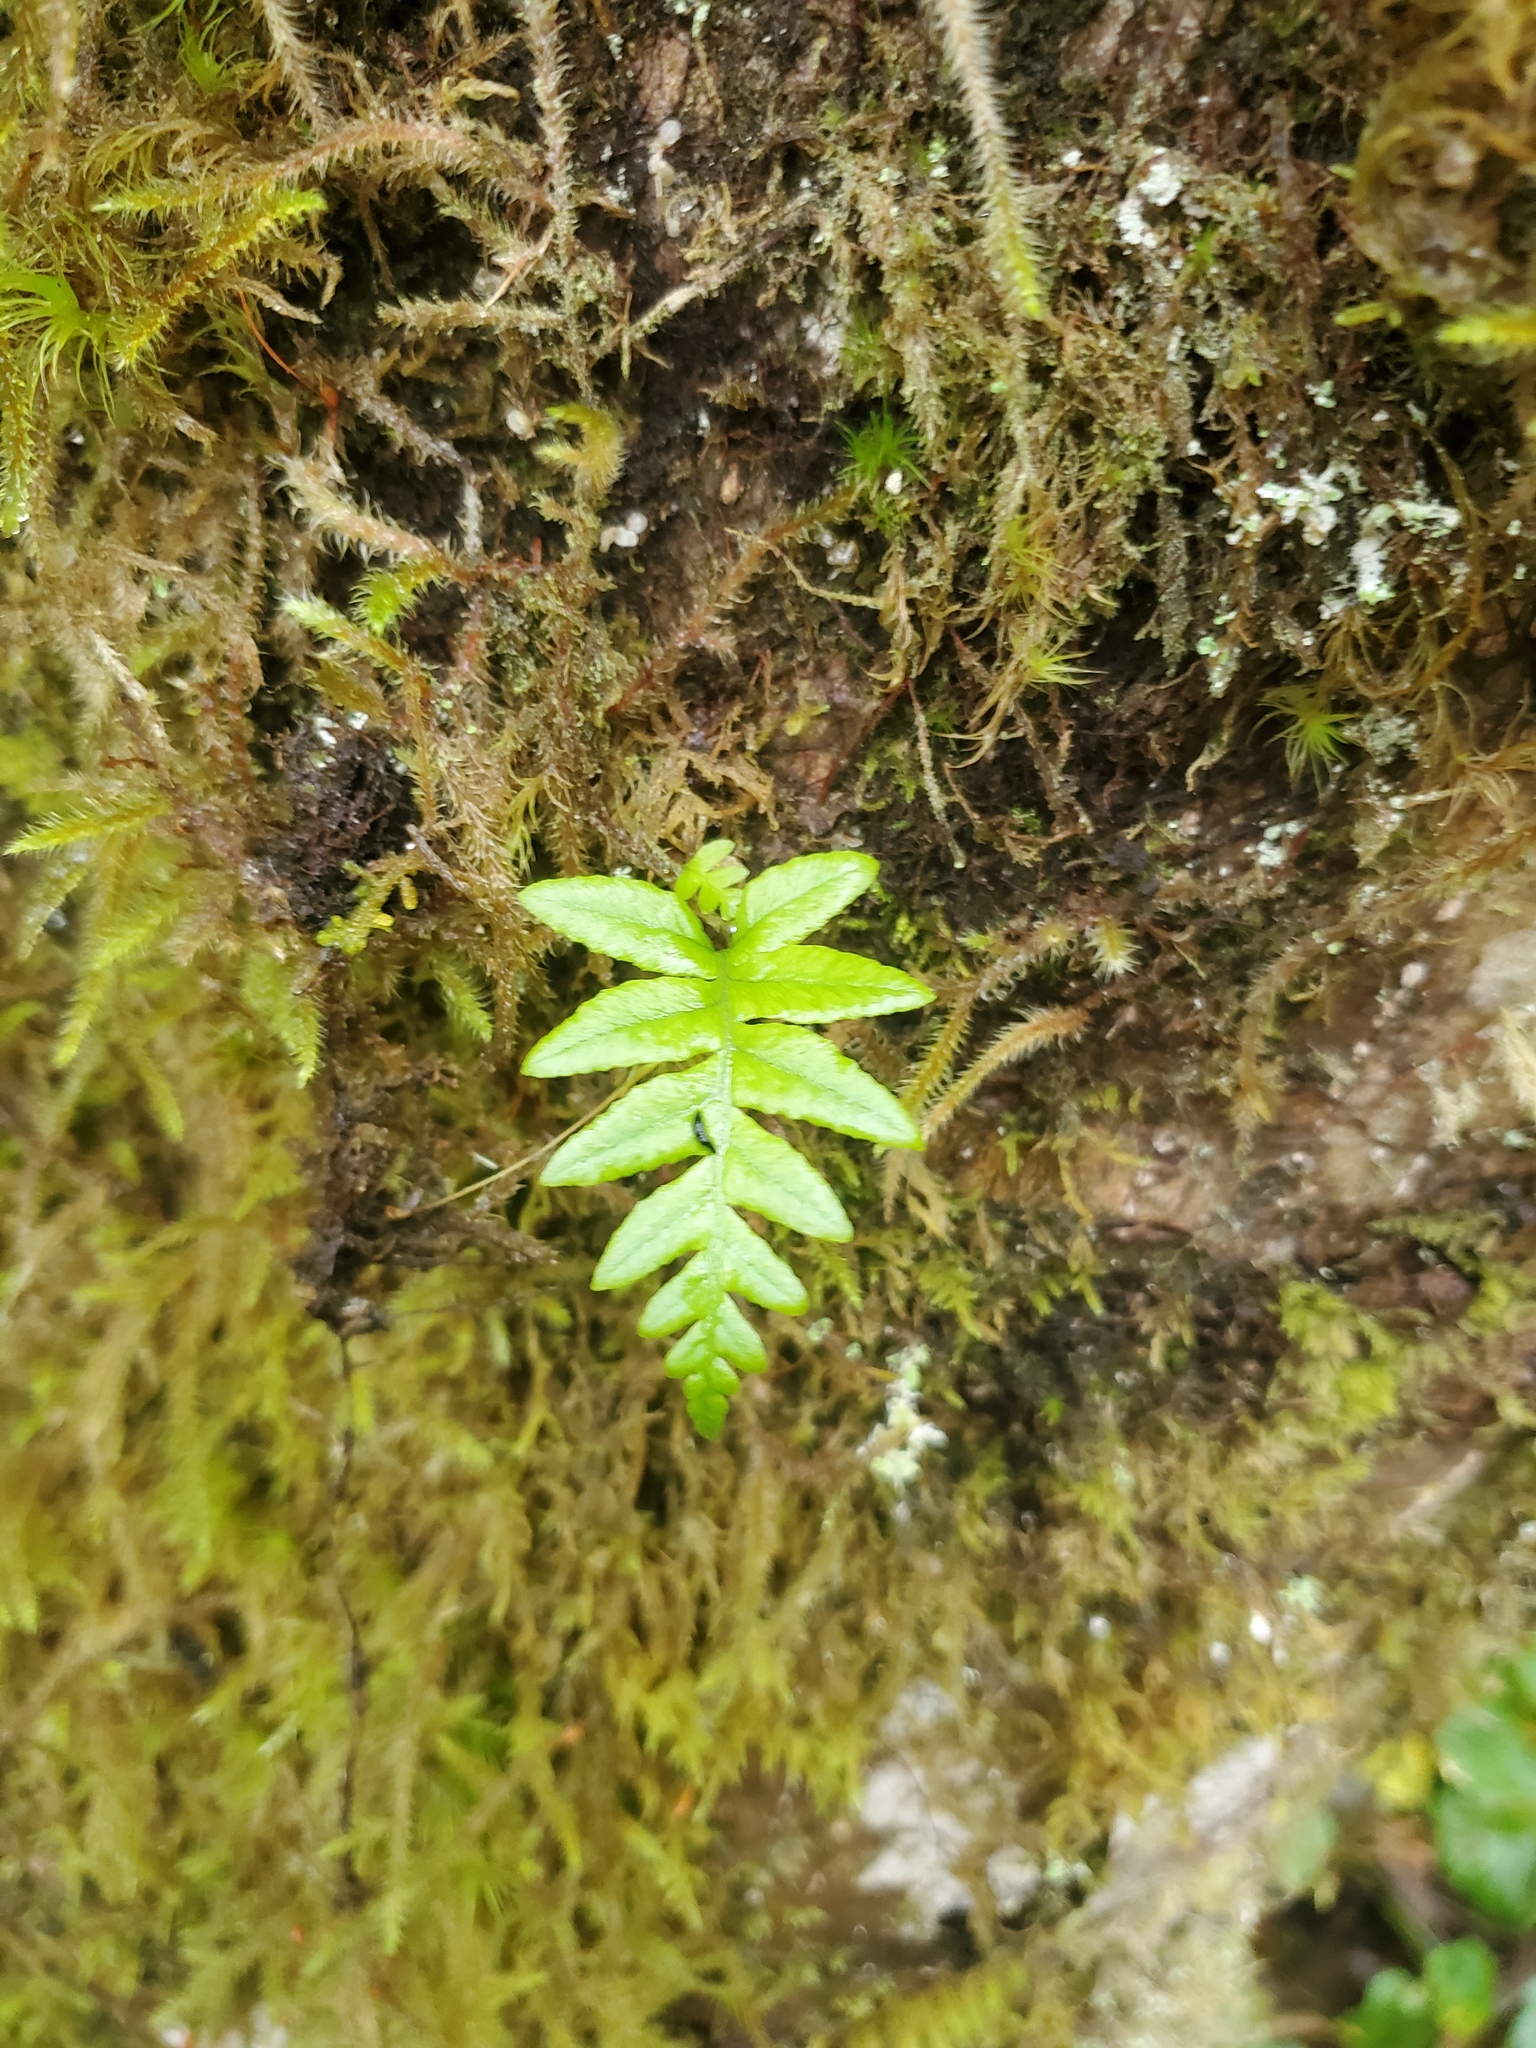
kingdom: Plantae
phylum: Tracheophyta
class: Polypodiopsida
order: Polypodiales
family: Polypodiaceae
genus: Polypodium
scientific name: Polypodium glycyrrhiza
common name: Licorice fern
